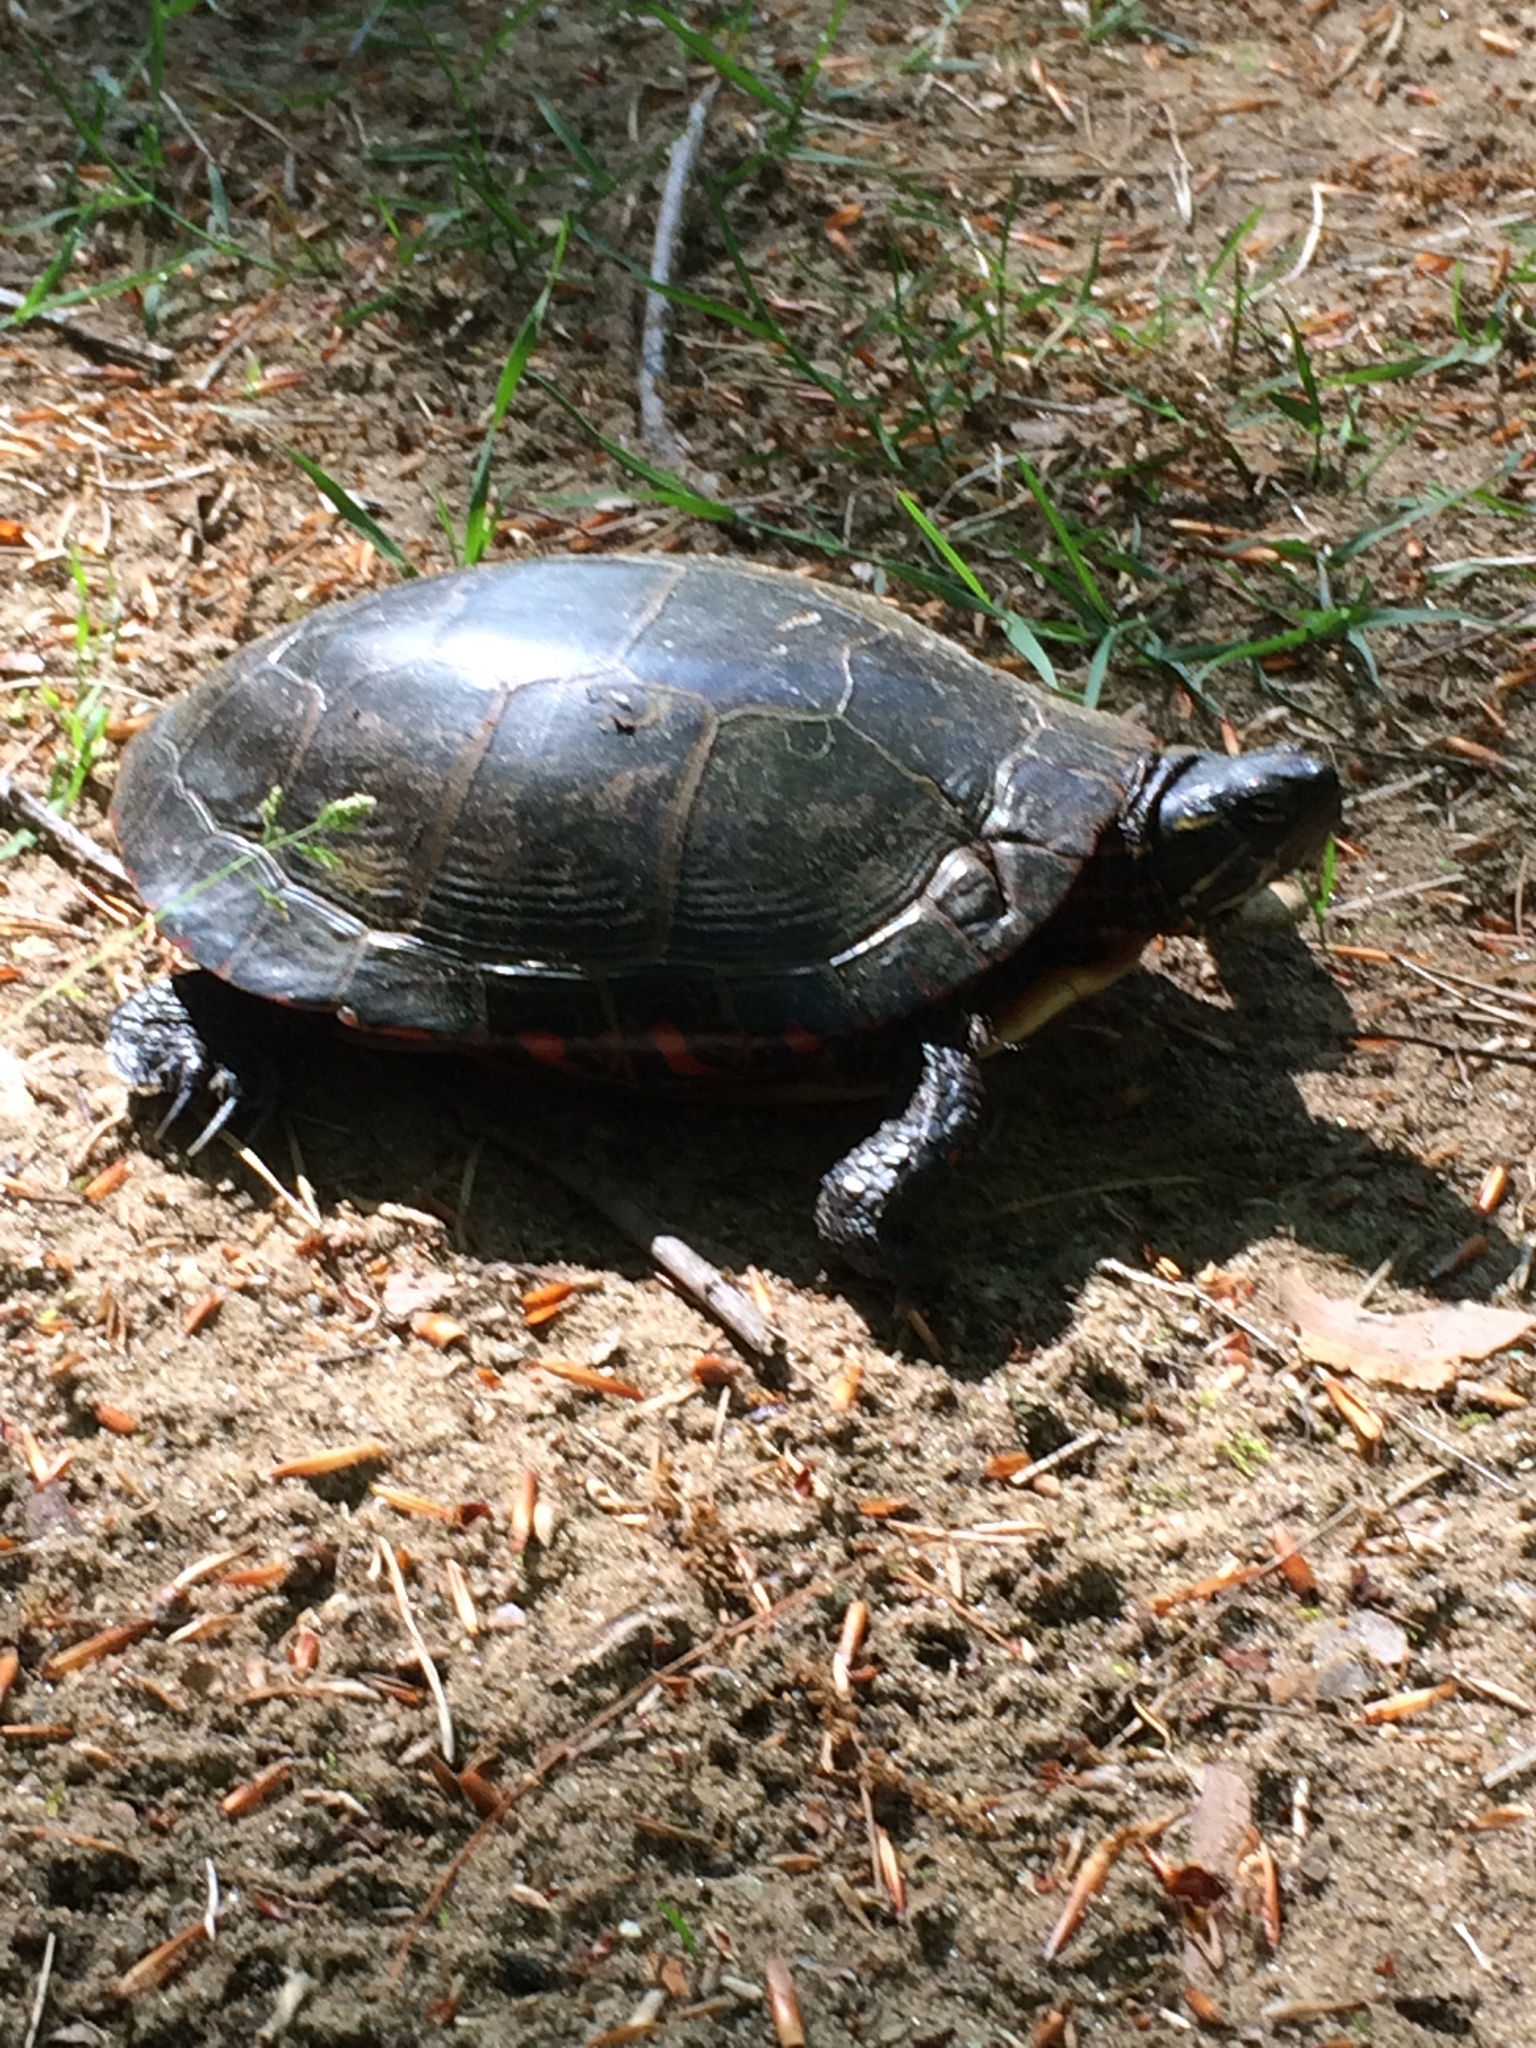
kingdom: Animalia
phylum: Chordata
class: Testudines
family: Emydidae
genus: Chrysemys
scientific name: Chrysemys picta
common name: Painted turtle
